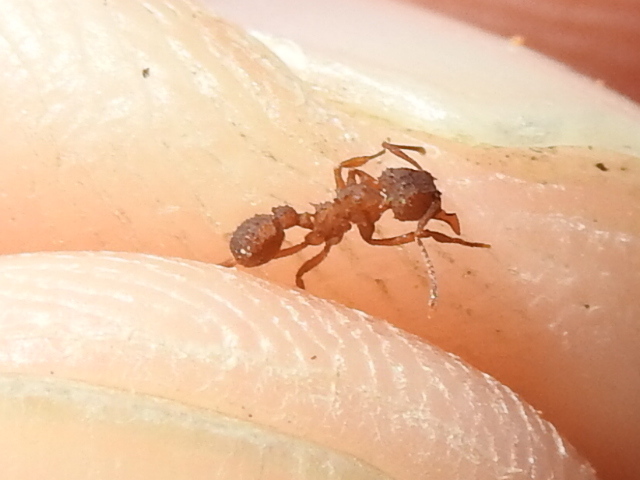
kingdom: Animalia
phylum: Arthropoda
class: Insecta
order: Hymenoptera
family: Formicidae
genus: Trachymyrmex
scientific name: Trachymyrmex septentrionalis
